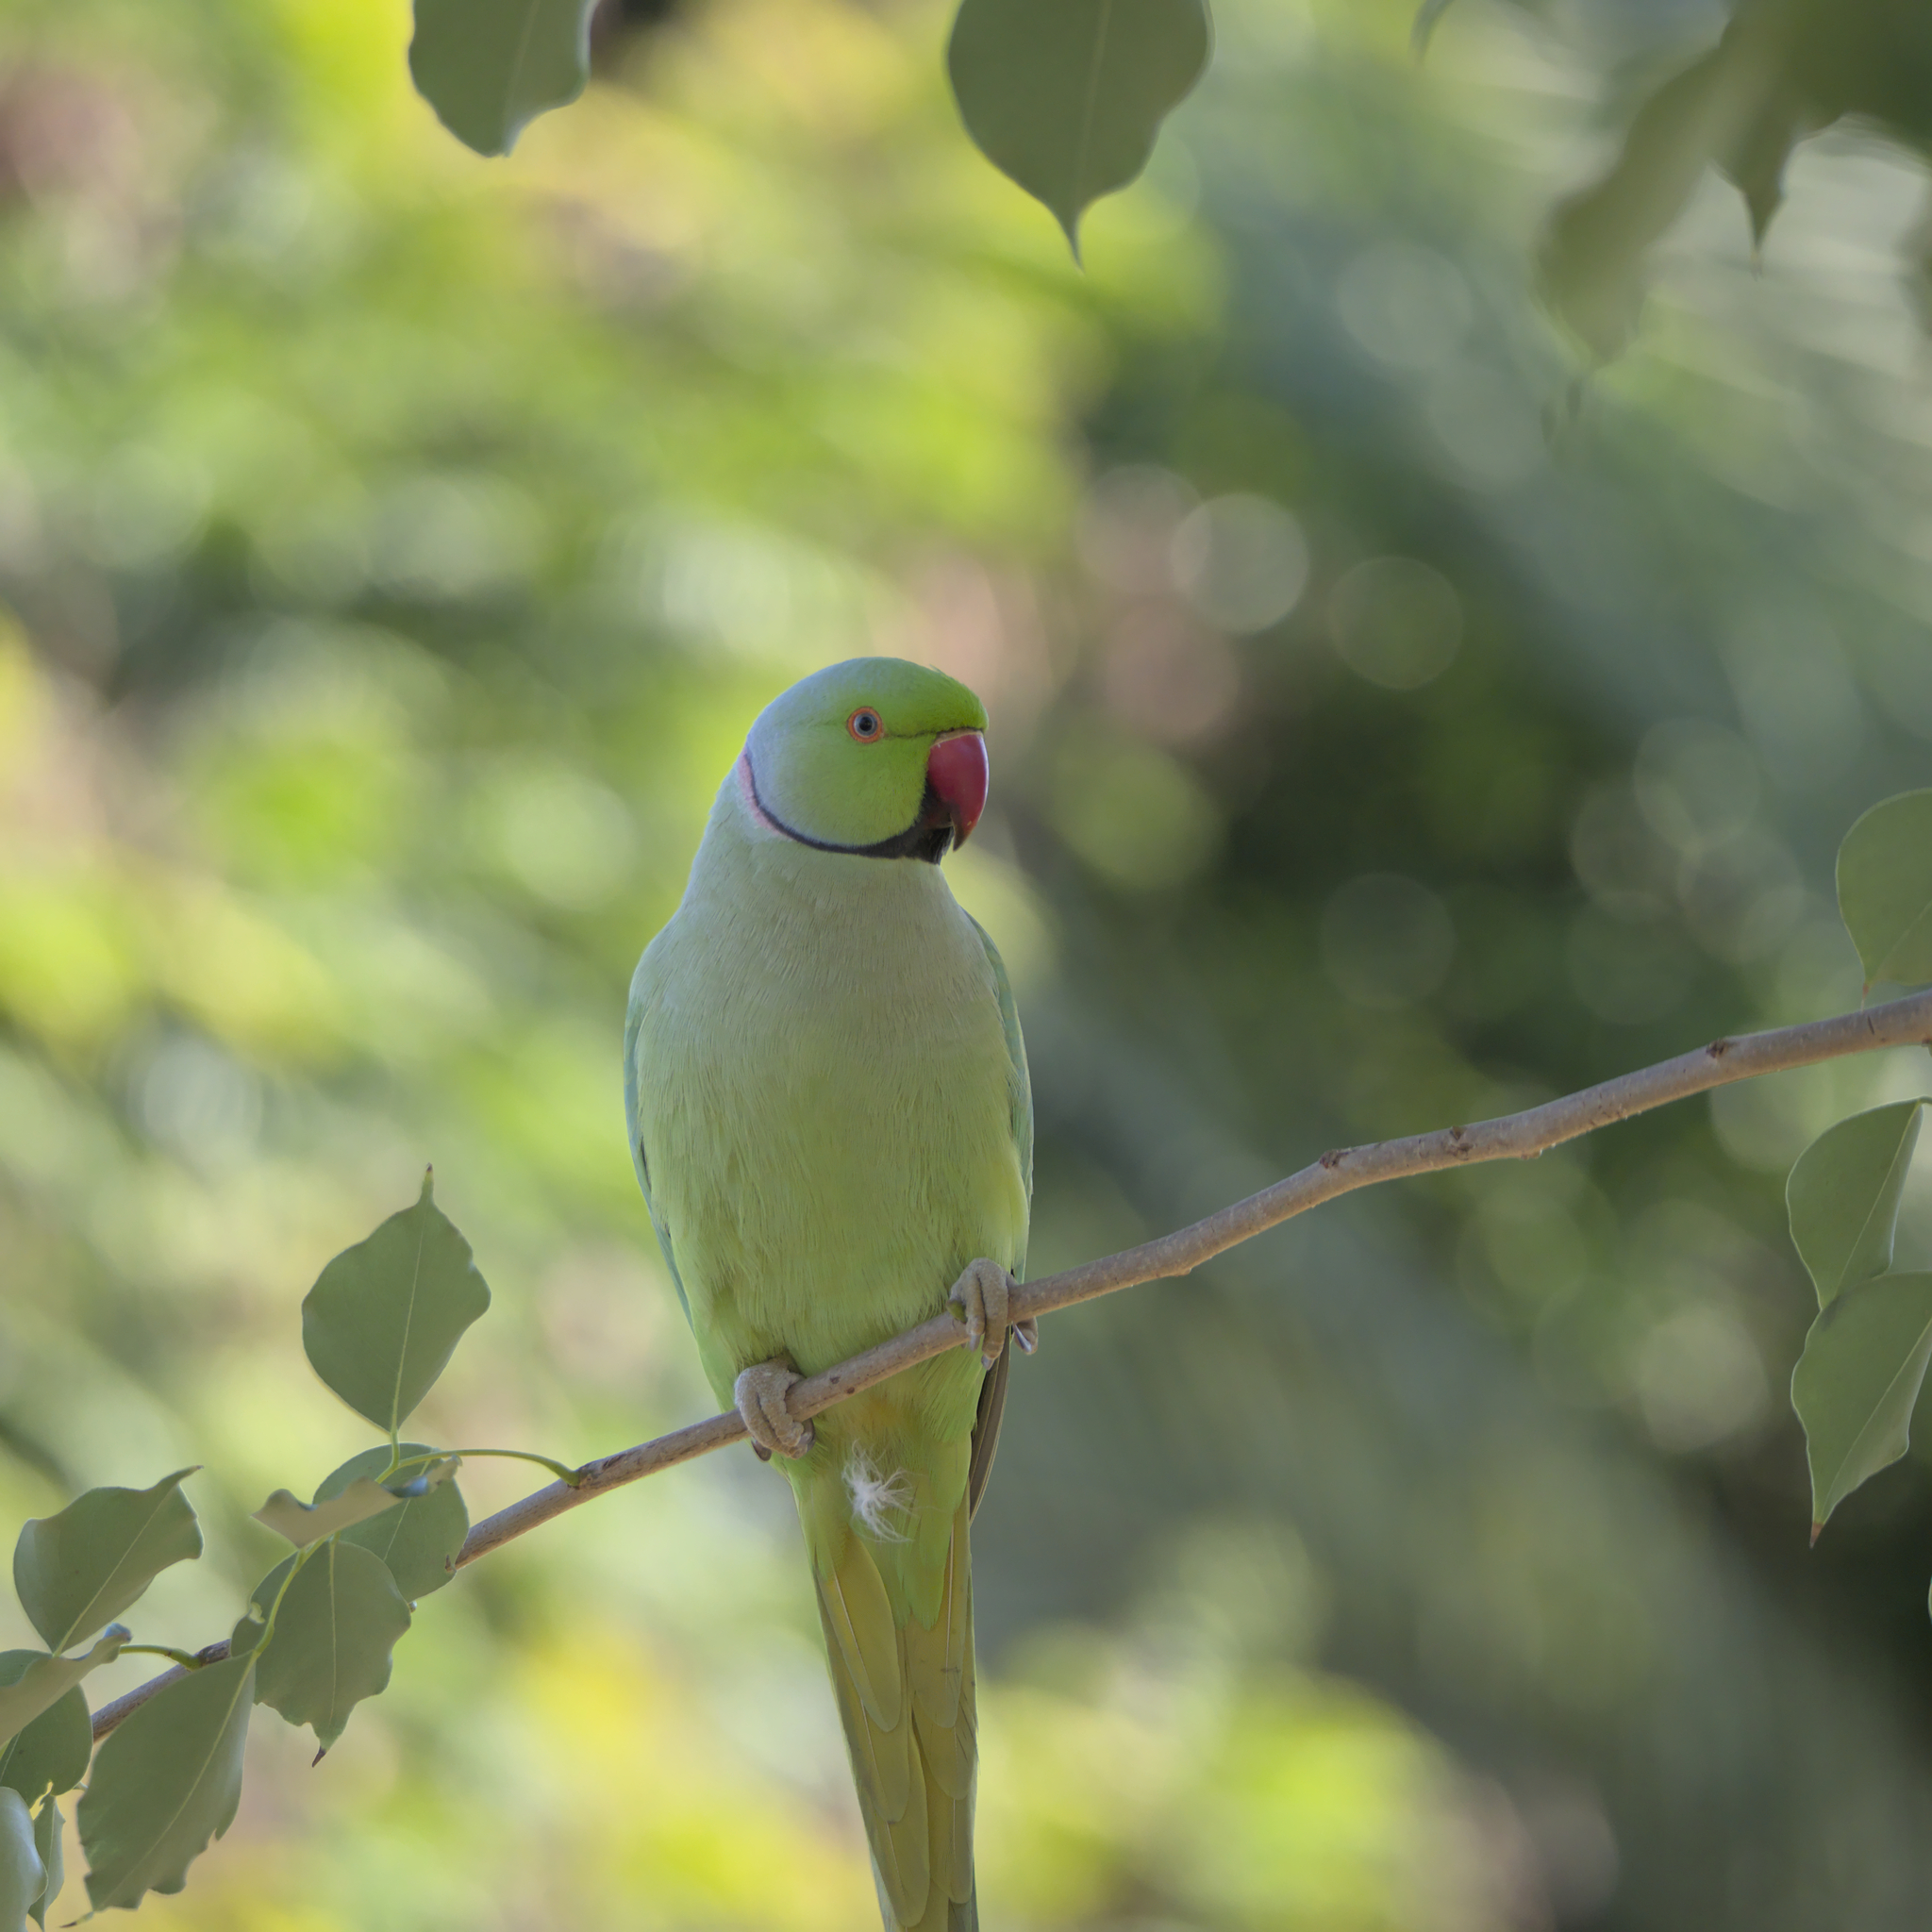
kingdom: Animalia
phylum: Chordata
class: Aves
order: Psittaciformes
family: Psittacidae
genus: Psittacula
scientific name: Psittacula krameri
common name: Rose-ringed parakeet
